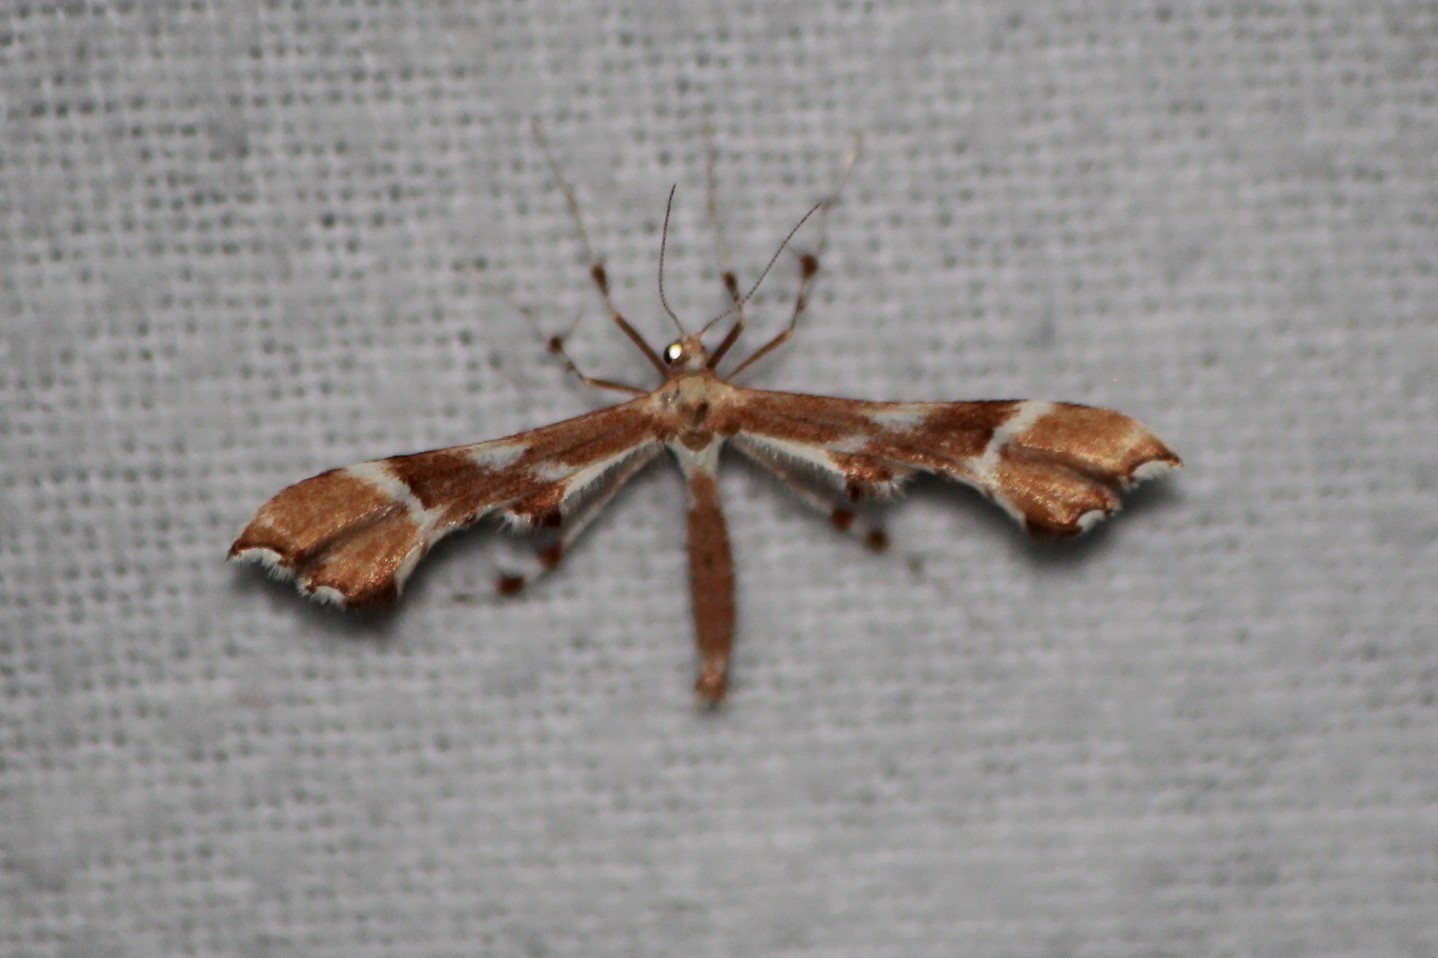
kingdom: Animalia
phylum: Arthropoda
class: Insecta
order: Lepidoptera
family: Pterophoridae
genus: Cnaemidophorus
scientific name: Cnaemidophorus rhododactyla
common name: Rose plume
